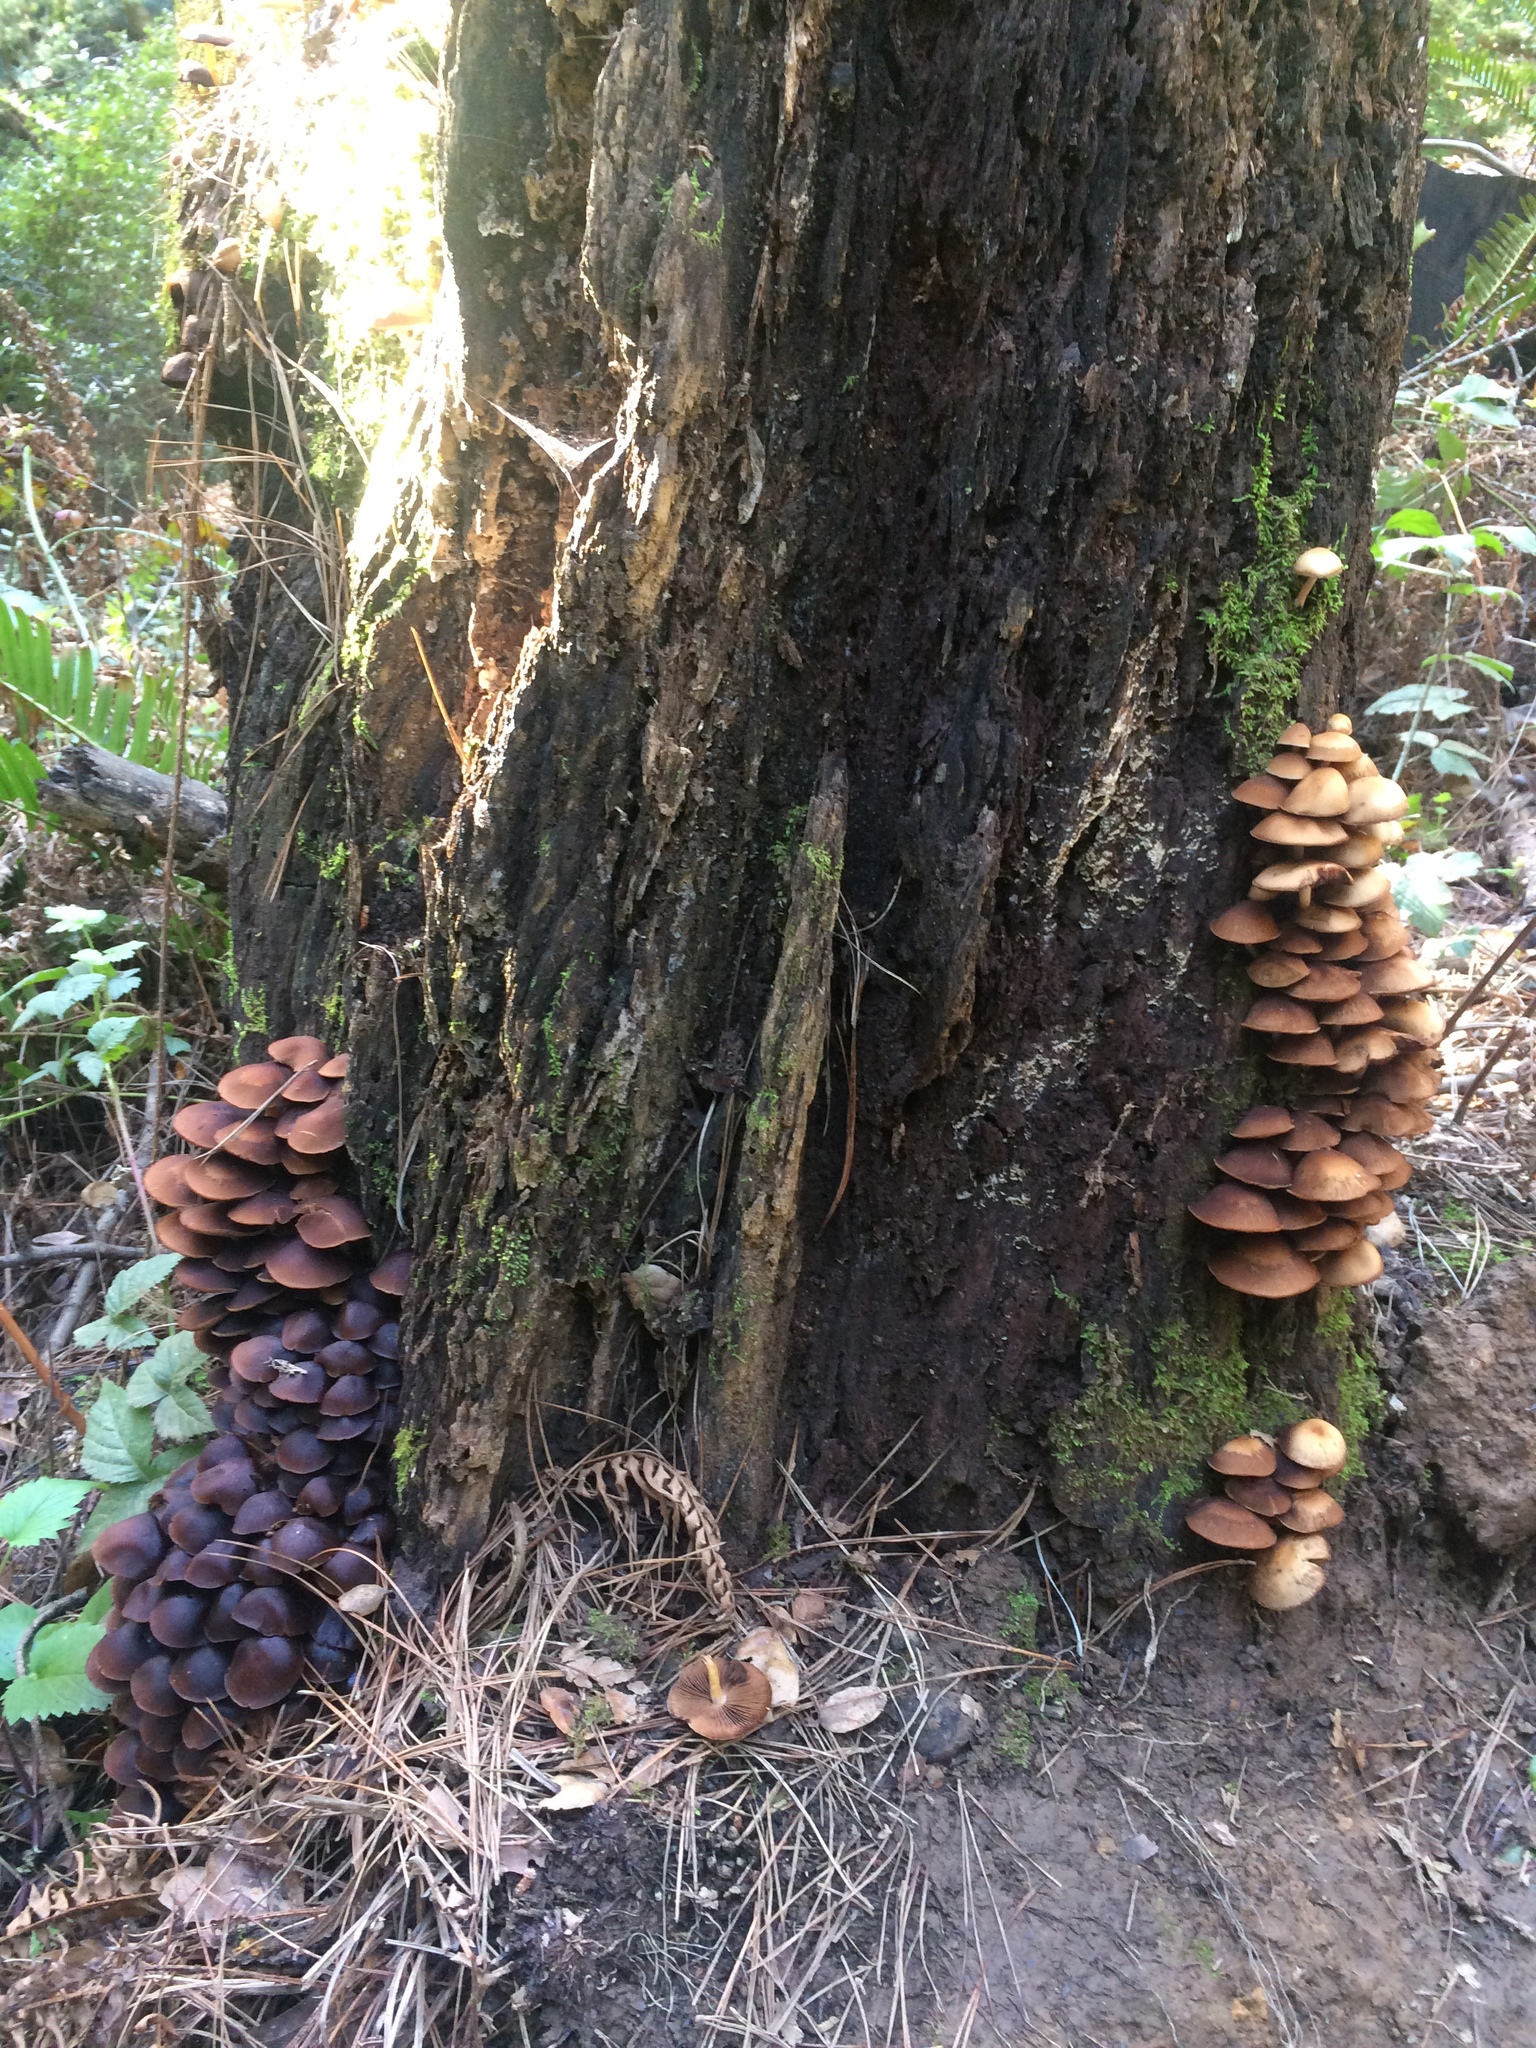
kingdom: Fungi
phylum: Basidiomycota
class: Agaricomycetes
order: Agaricales
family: Psathyrellaceae
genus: Psathyrella
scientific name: Psathyrella piluliformis
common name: Common stump brittlestem
